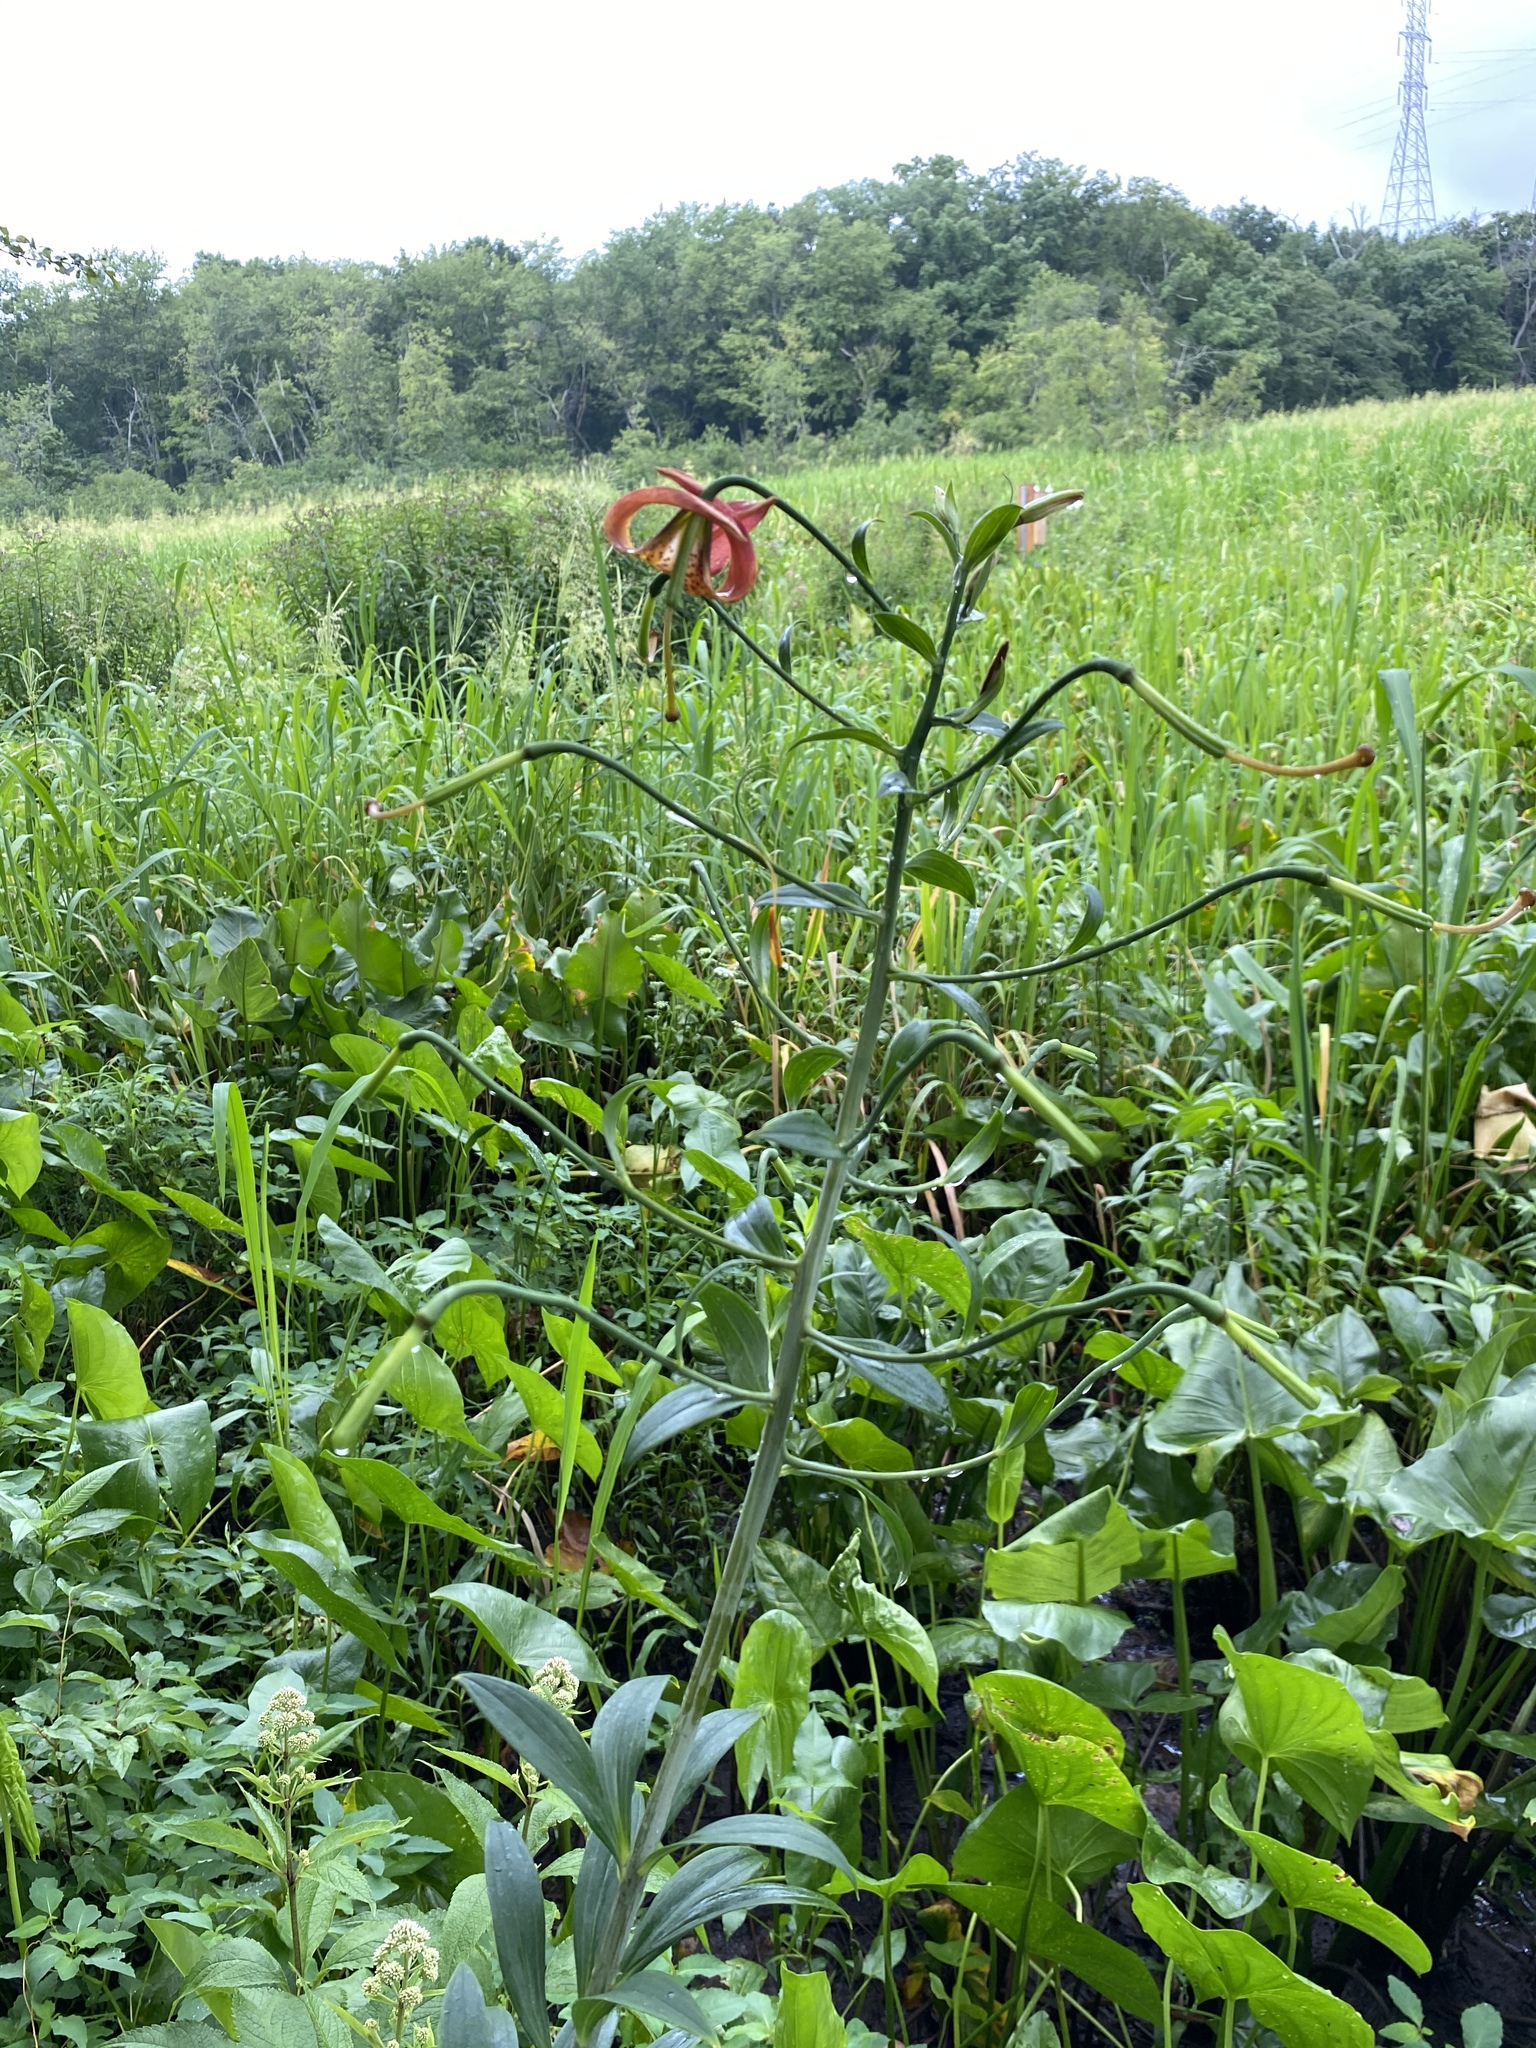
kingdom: Plantae
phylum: Tracheophyta
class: Liliopsida
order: Liliales
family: Liliaceae
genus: Lilium
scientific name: Lilium superbum
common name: American turk's-cap lily
